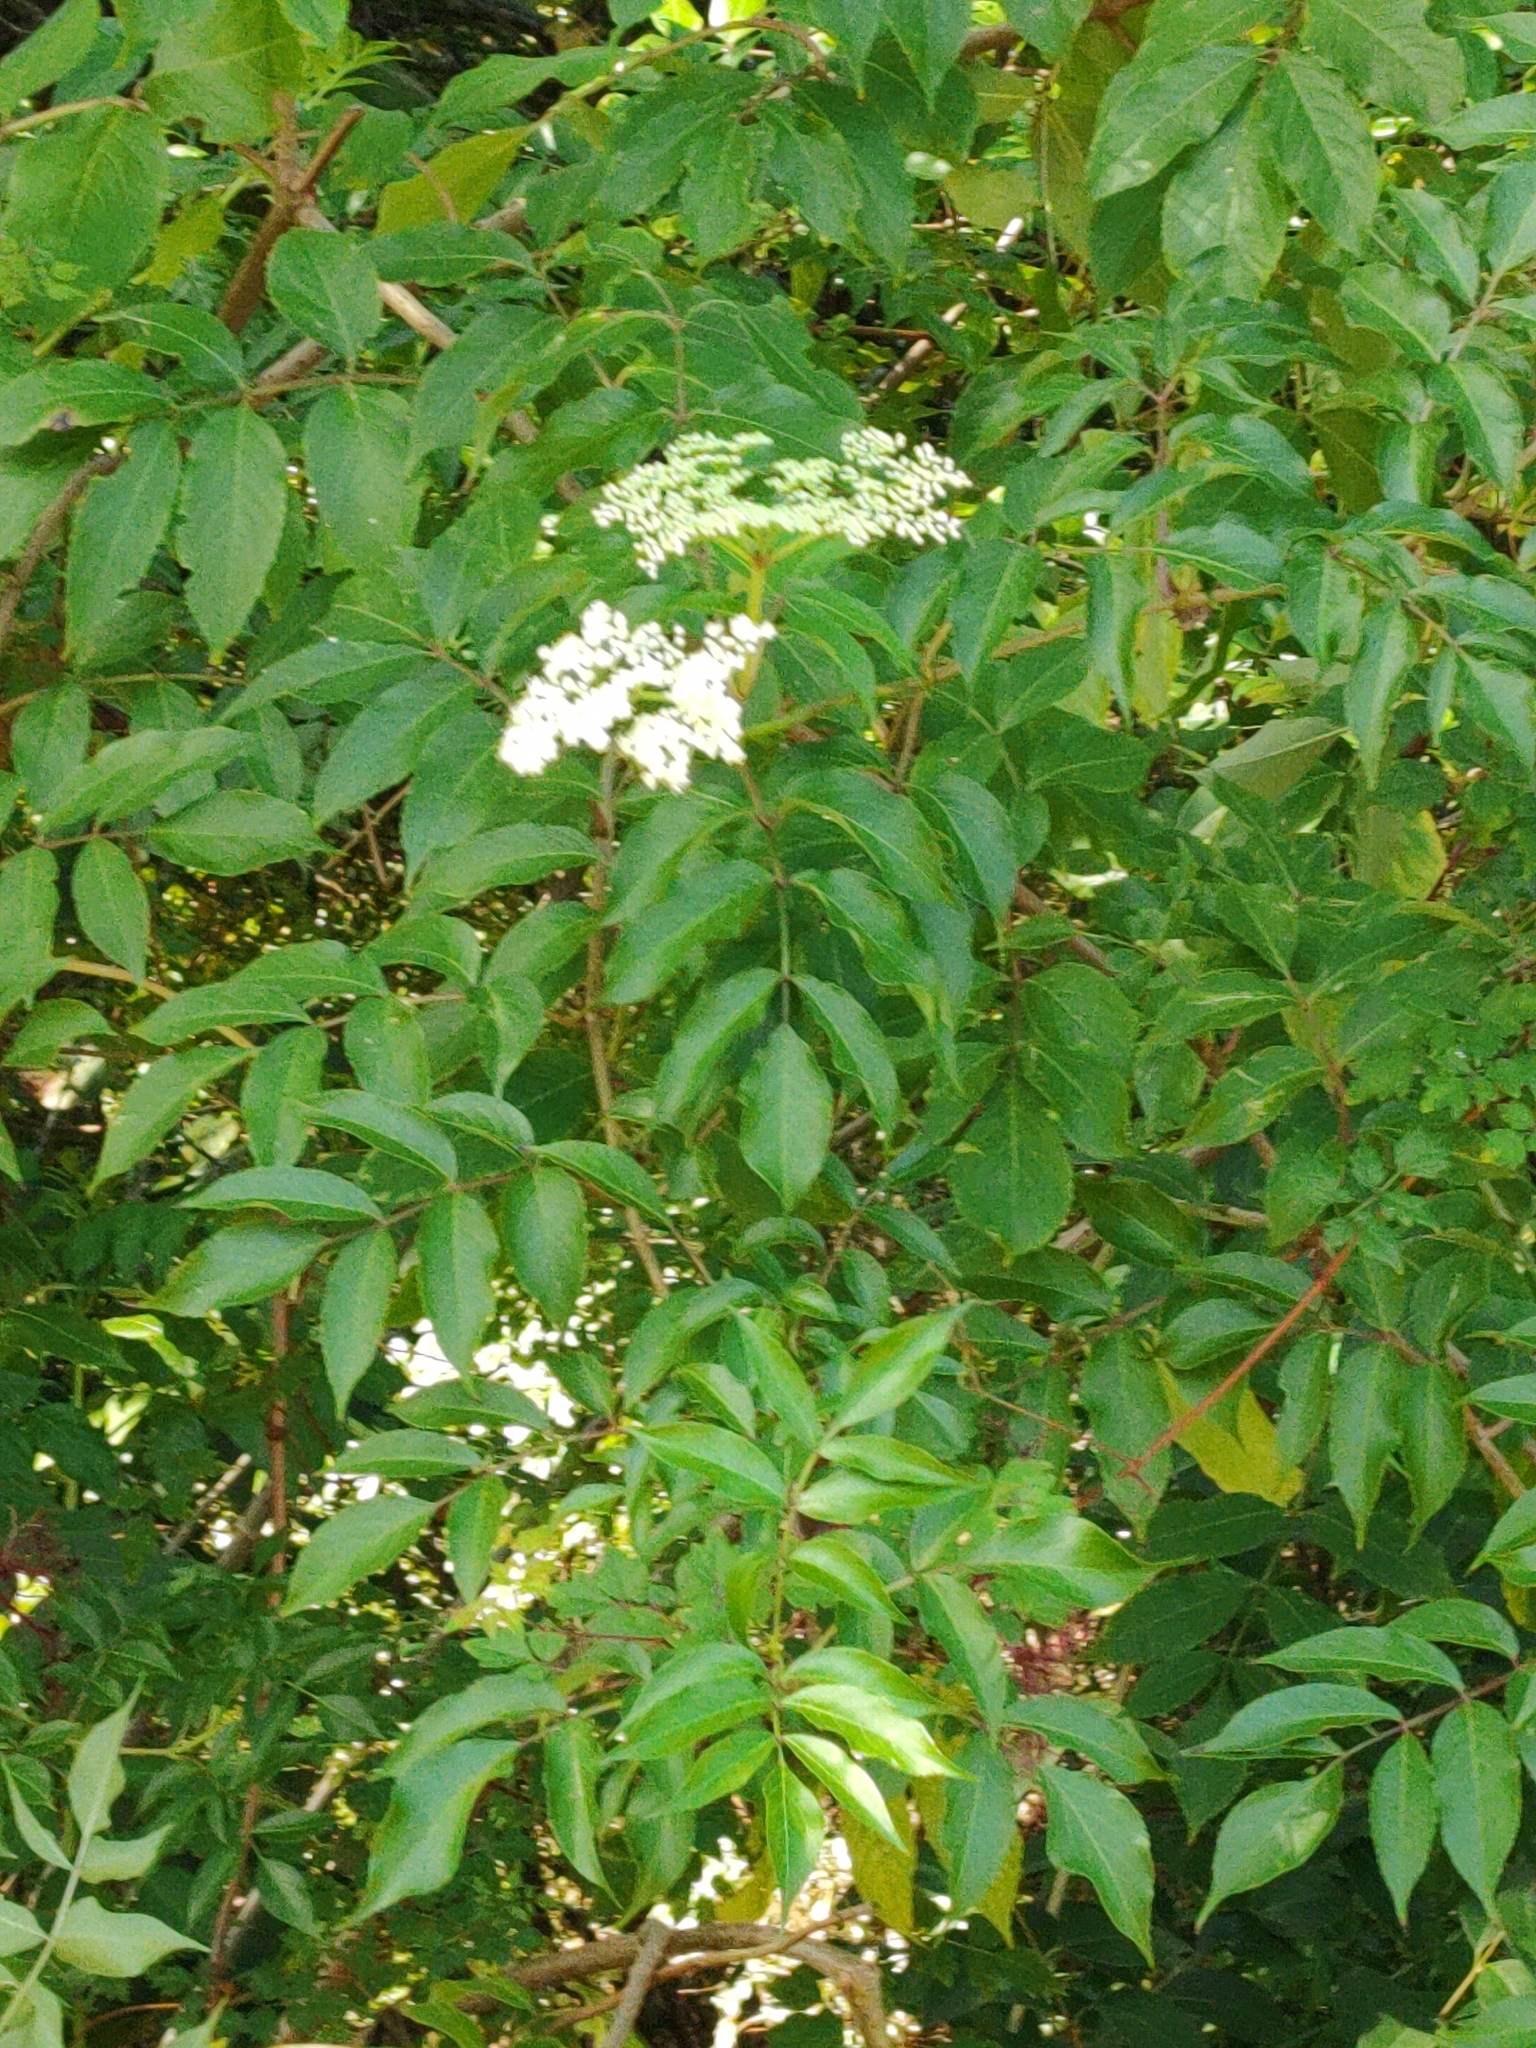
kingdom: Plantae
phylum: Tracheophyta
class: Magnoliopsida
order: Dipsacales
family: Viburnaceae
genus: Sambucus
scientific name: Sambucus canadensis
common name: American elder
